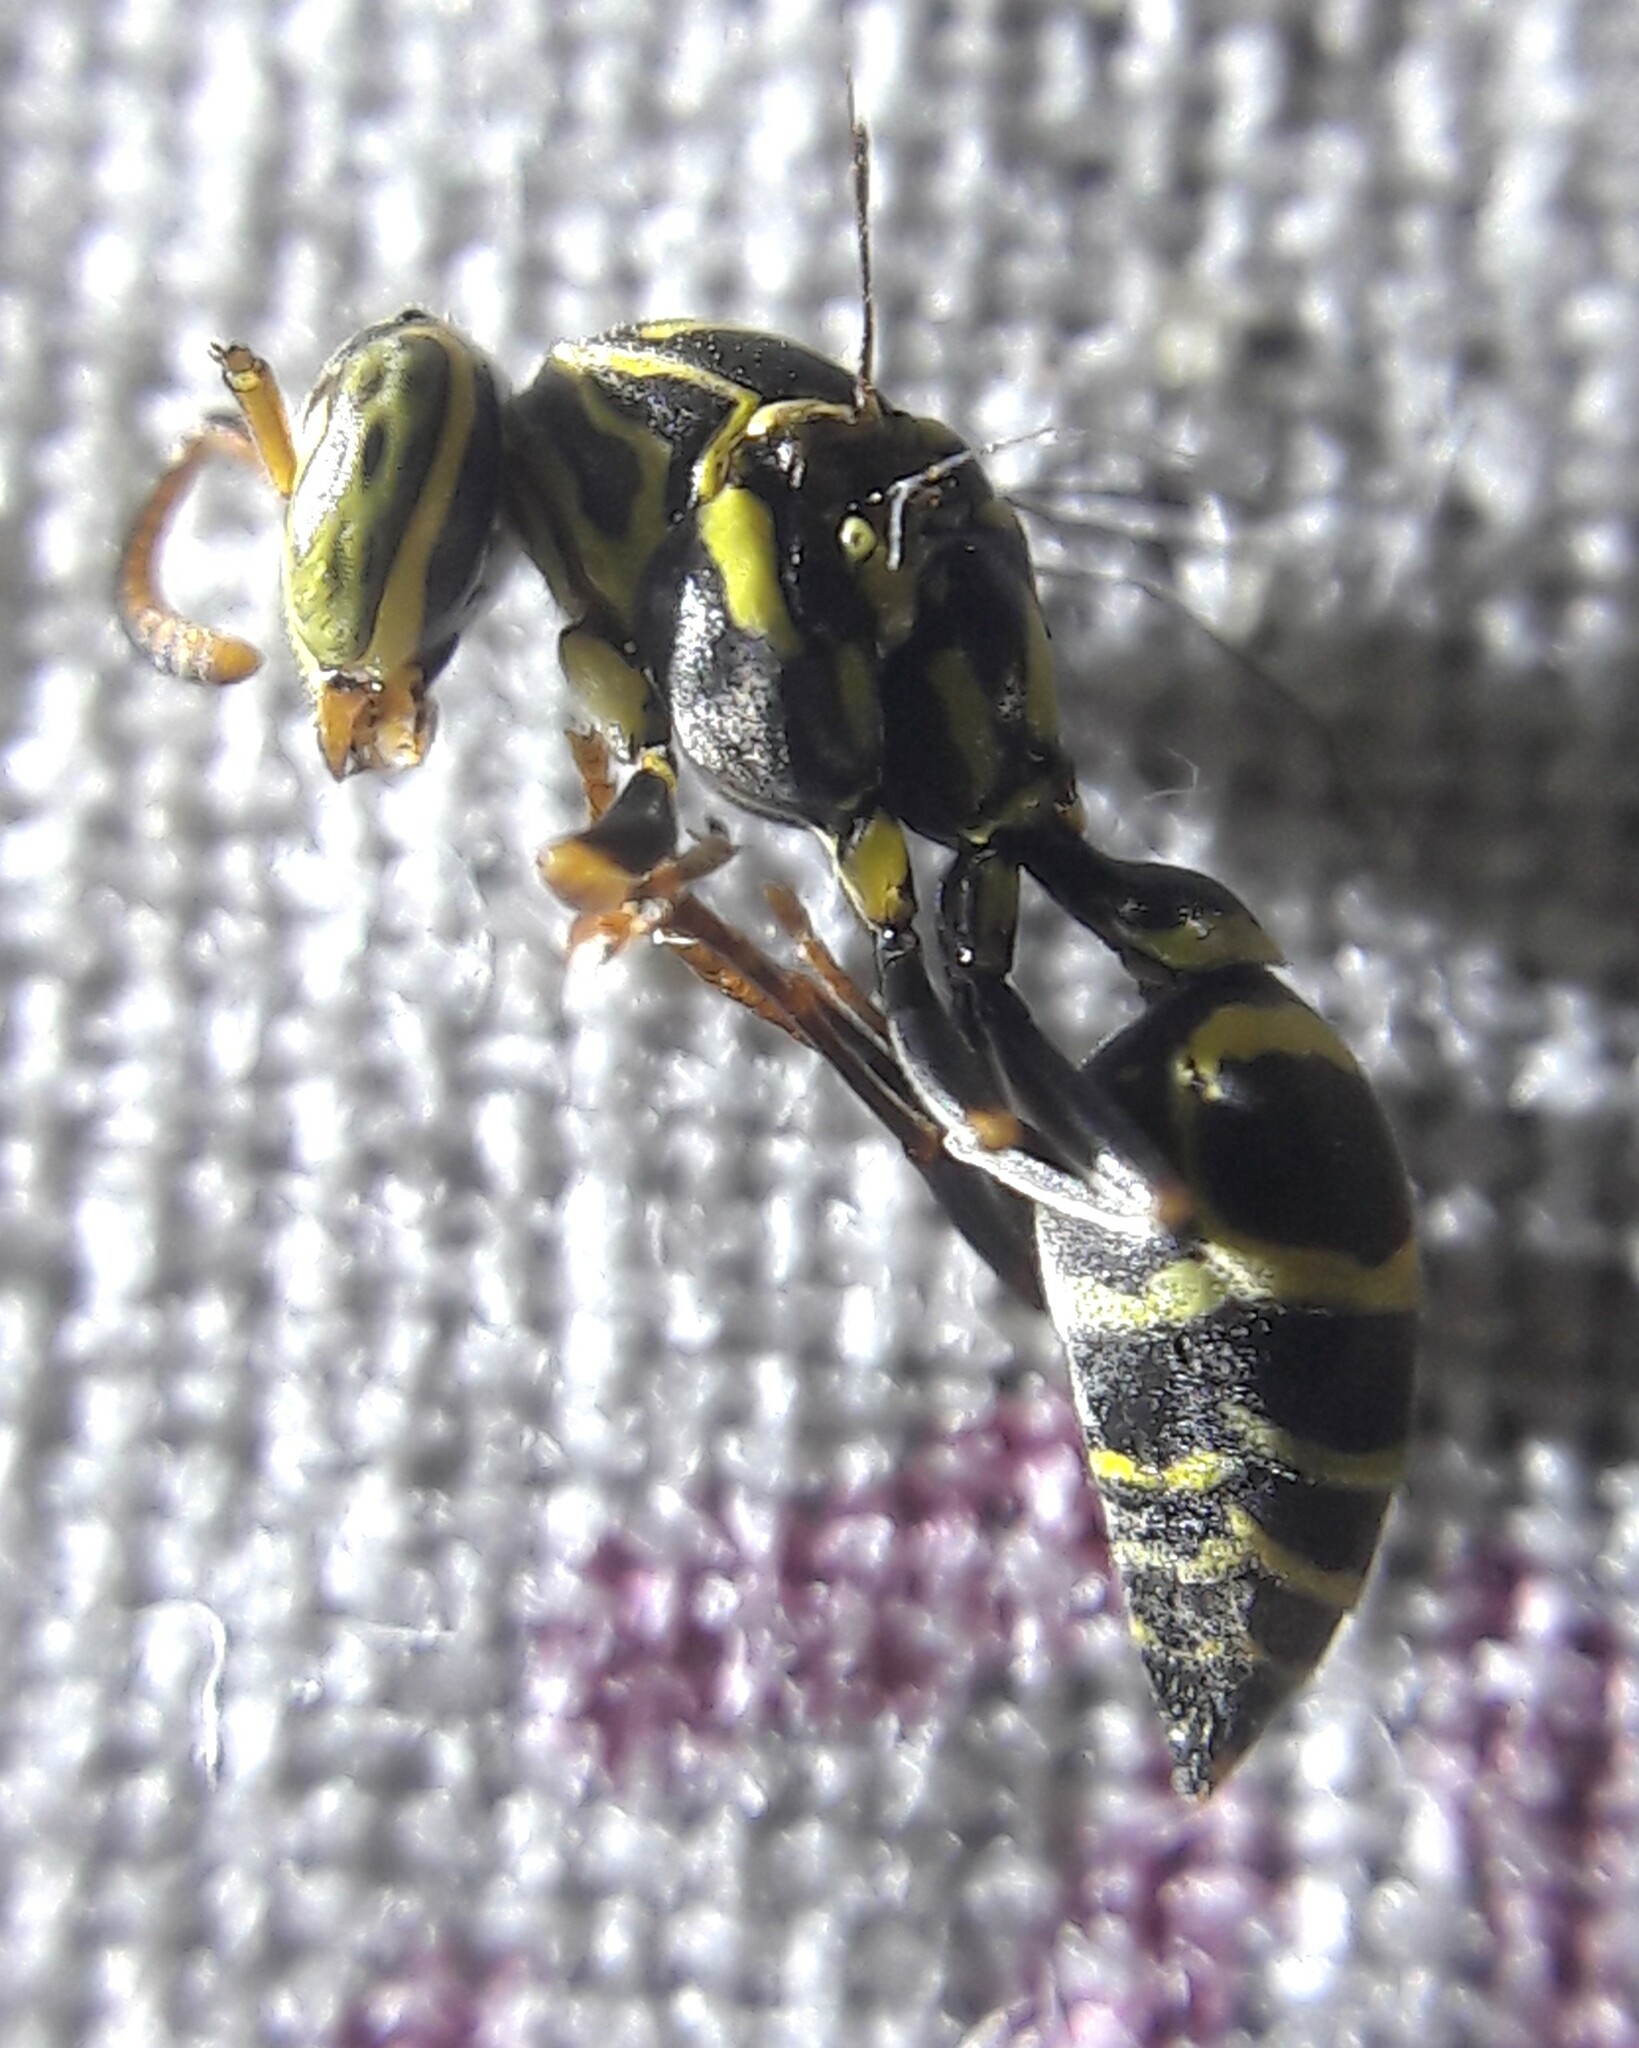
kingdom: Animalia
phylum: Arthropoda
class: Insecta
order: Hymenoptera
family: Vespidae
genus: Protopolybia
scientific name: Protopolybia exigua
